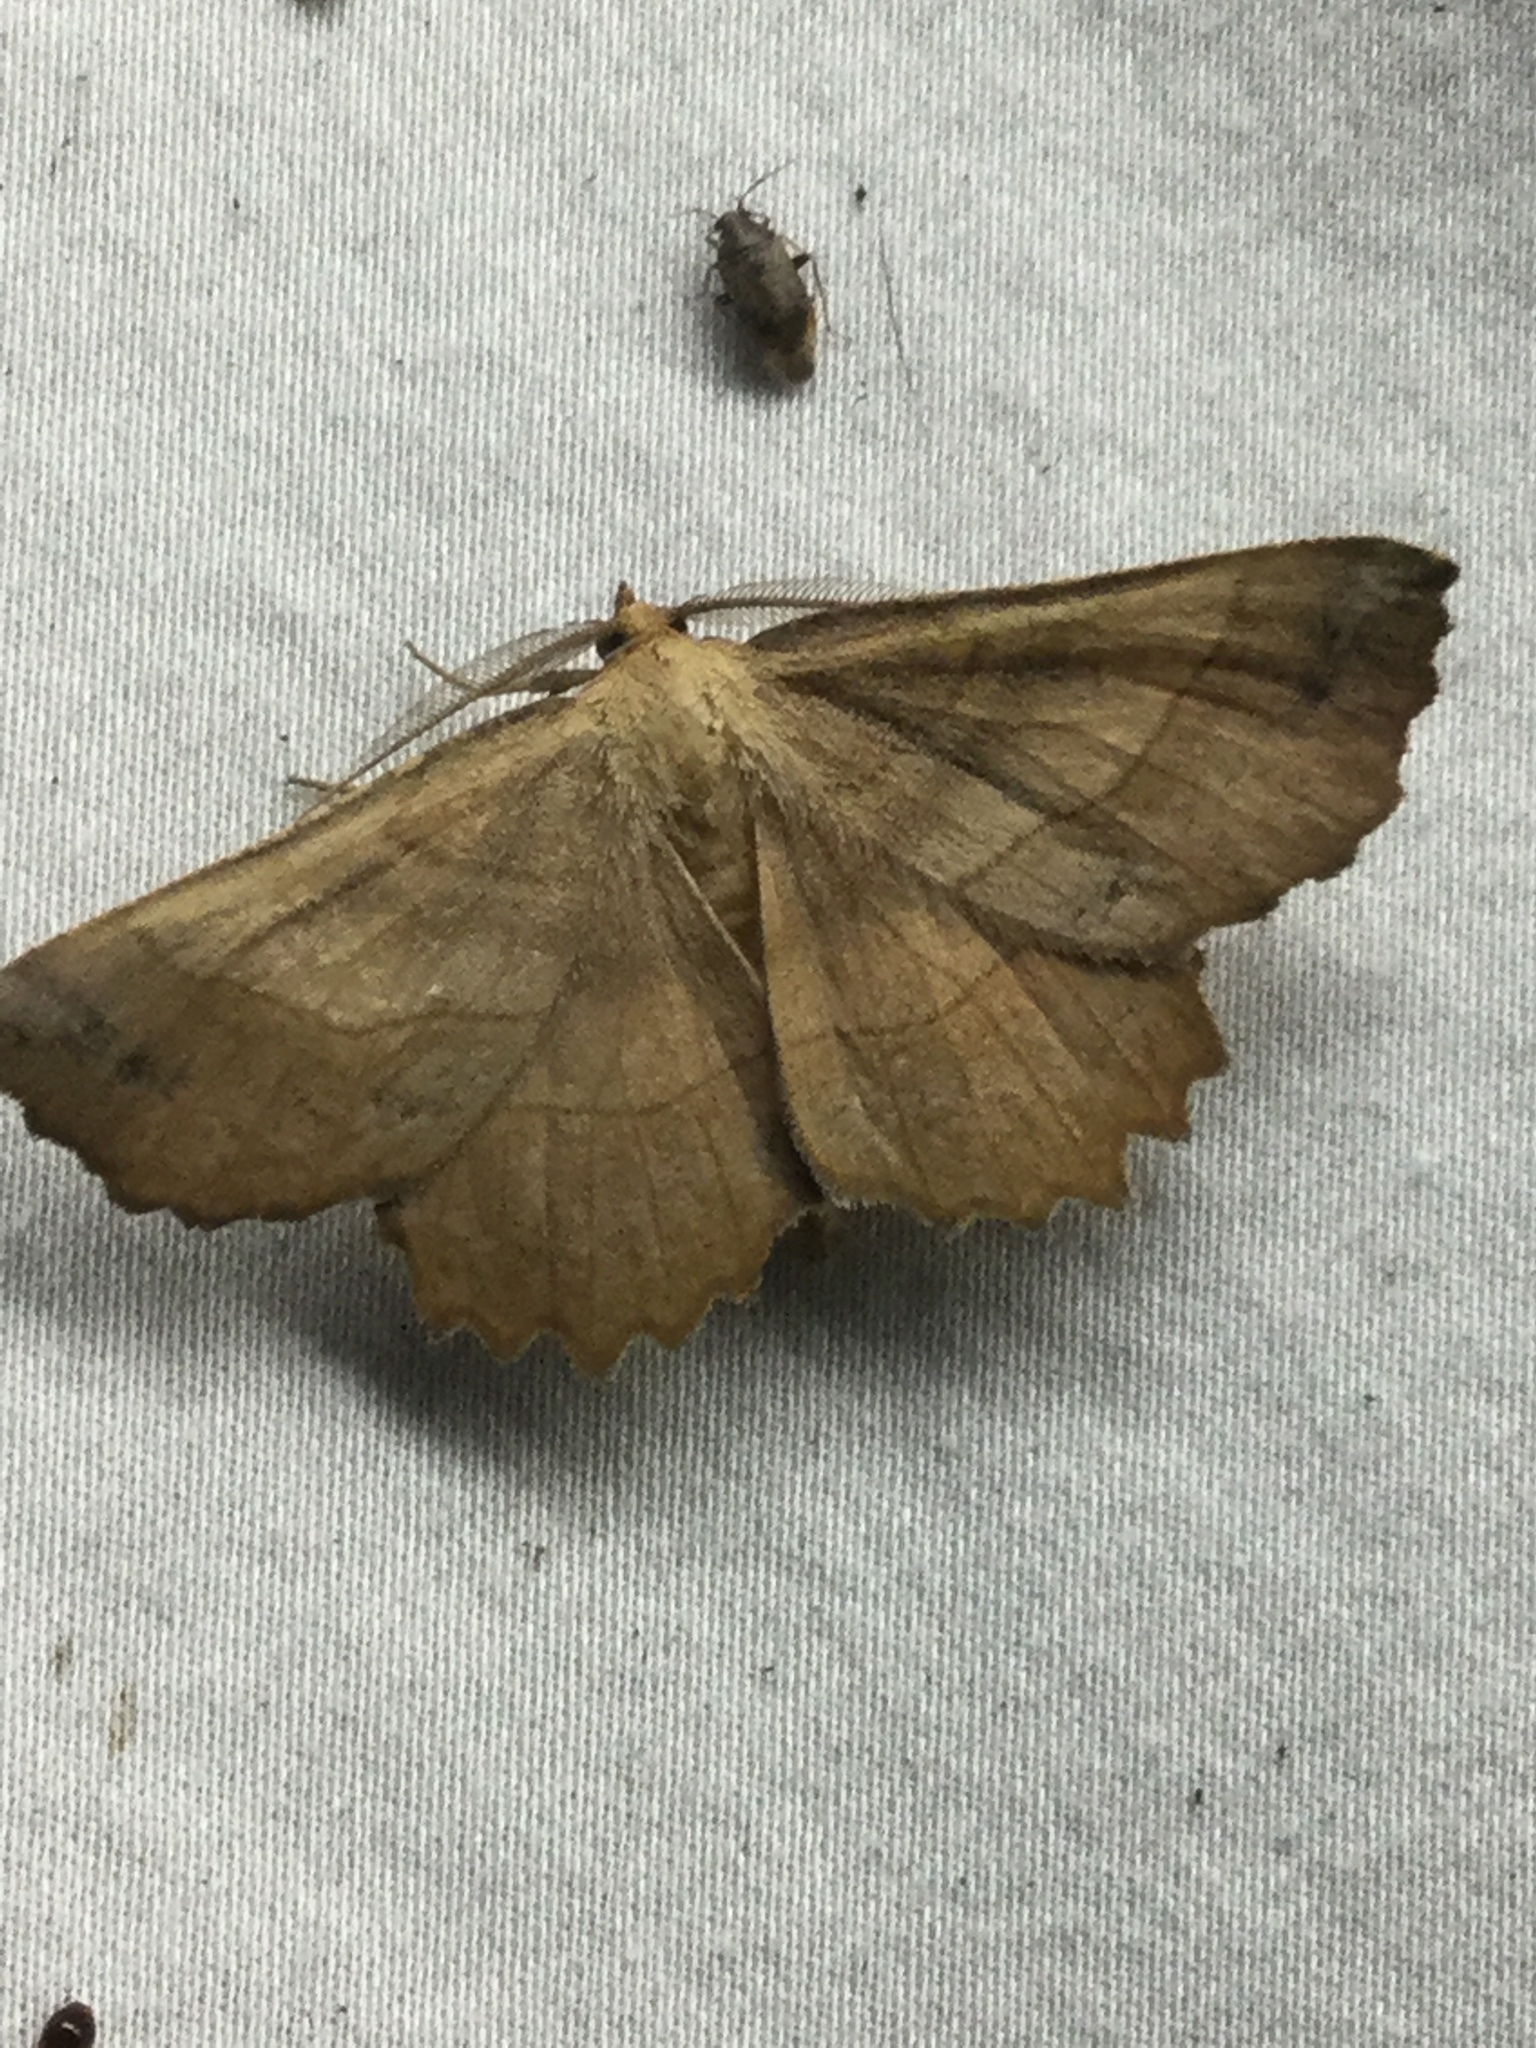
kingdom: Animalia
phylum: Arthropoda
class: Insecta
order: Lepidoptera
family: Geometridae
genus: Euchlaena
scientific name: Euchlaena johnsonaria
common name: Johnson's euchlaena
